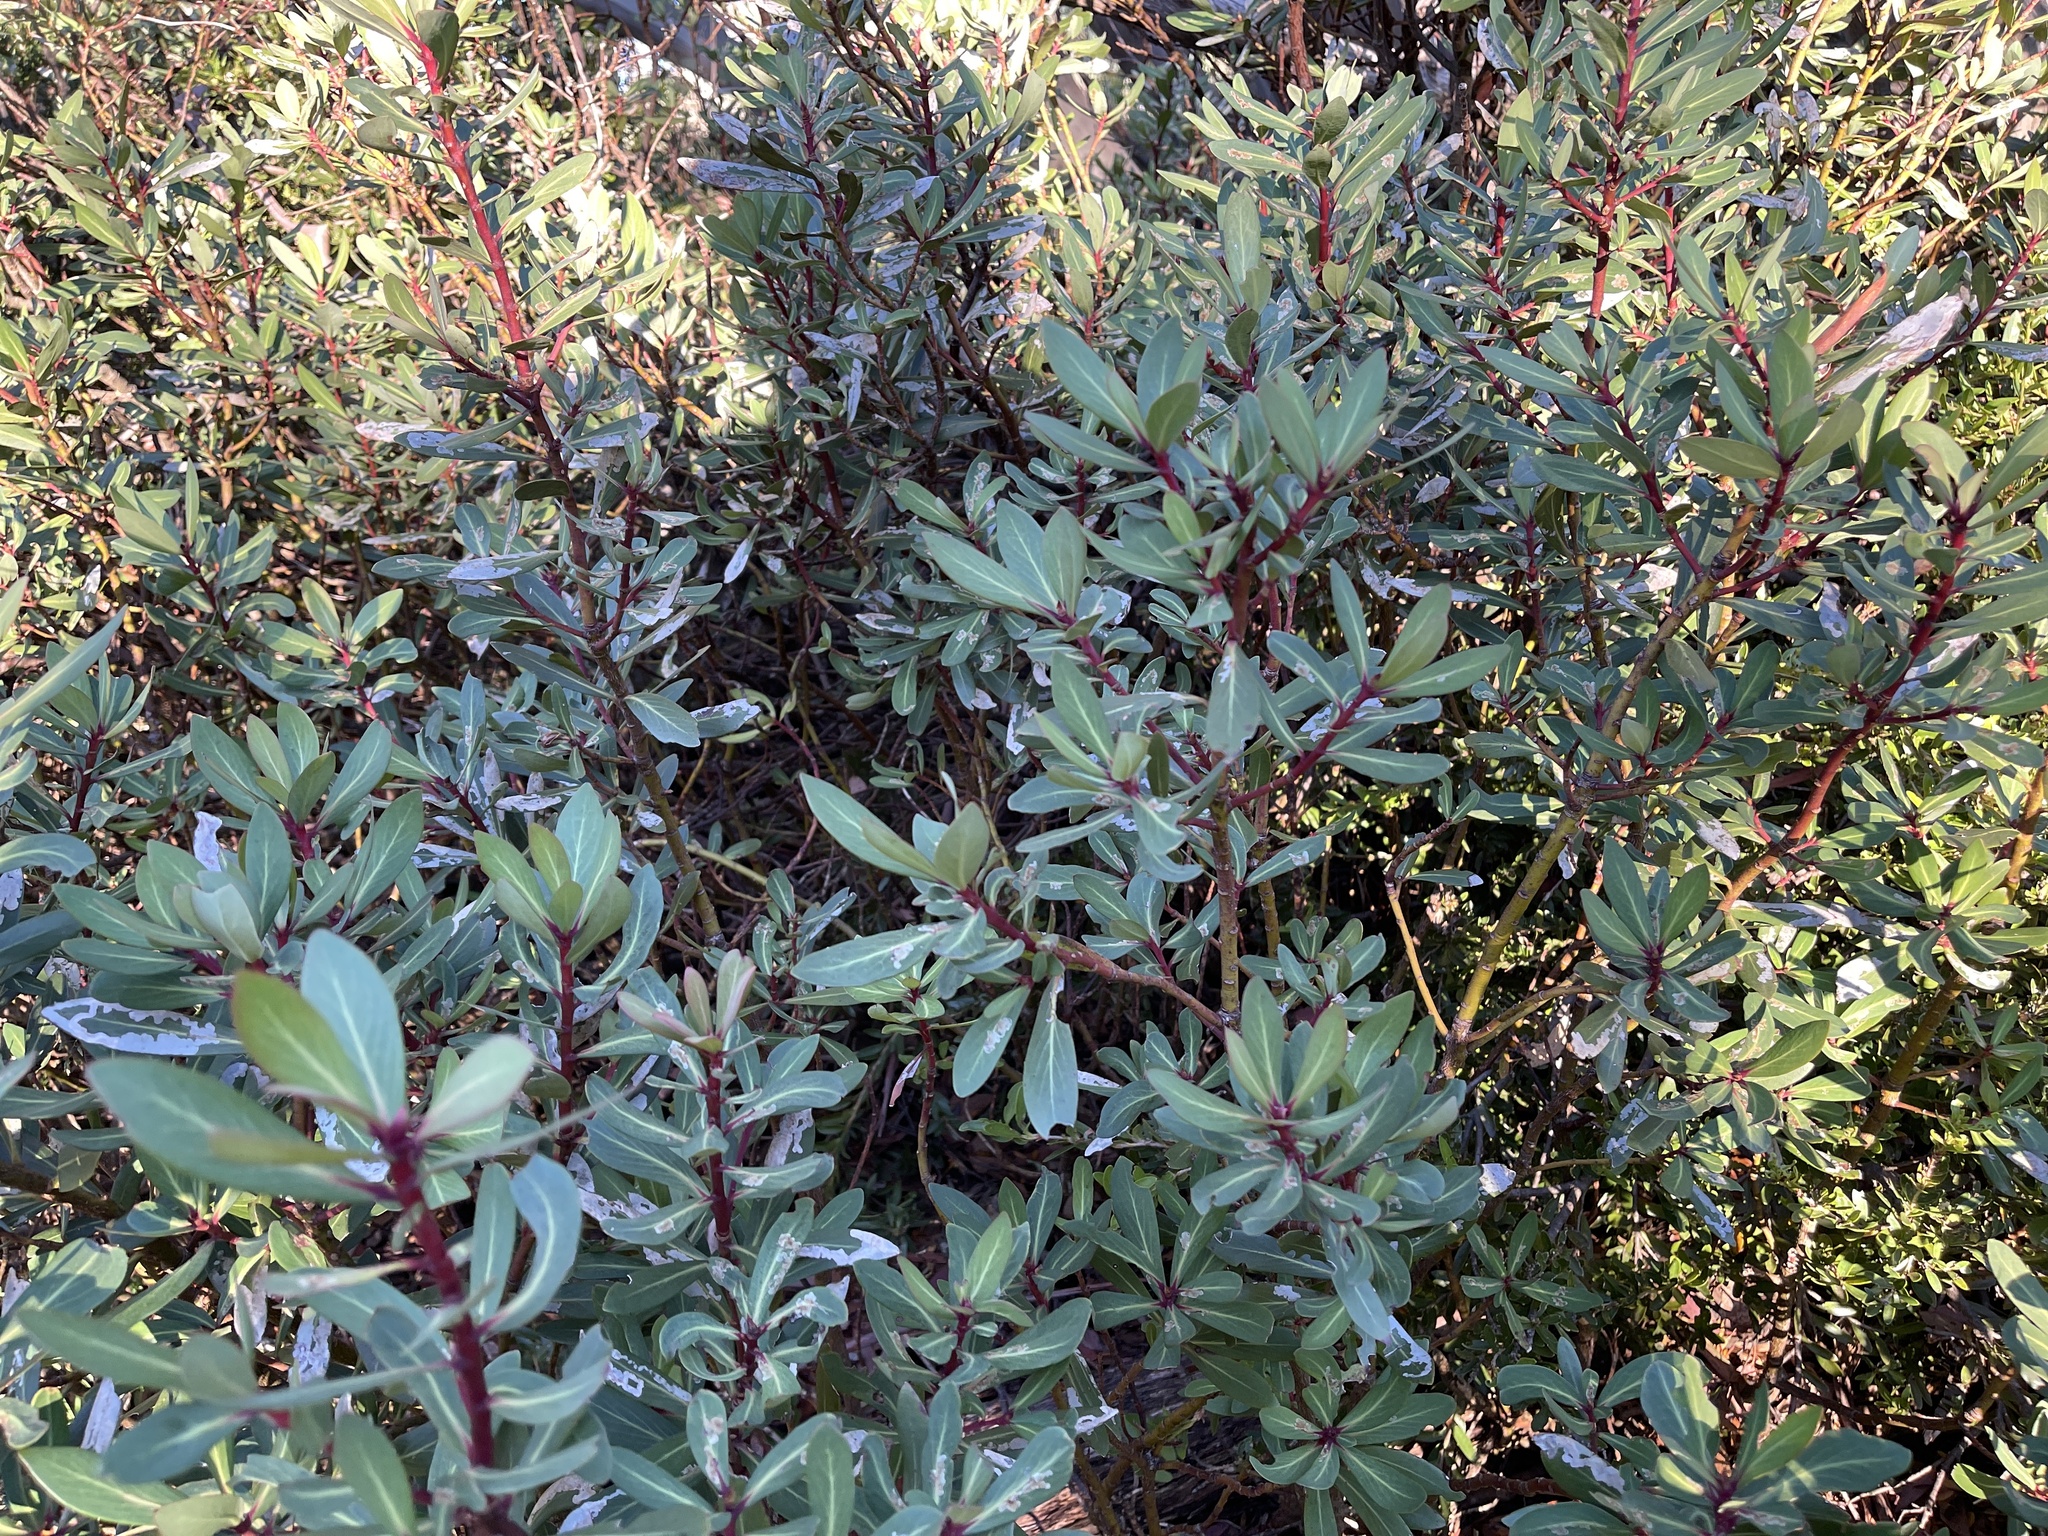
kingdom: Plantae
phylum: Tracheophyta
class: Magnoliopsida
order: Canellales
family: Winteraceae
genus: Drimys
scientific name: Drimys xerophila
